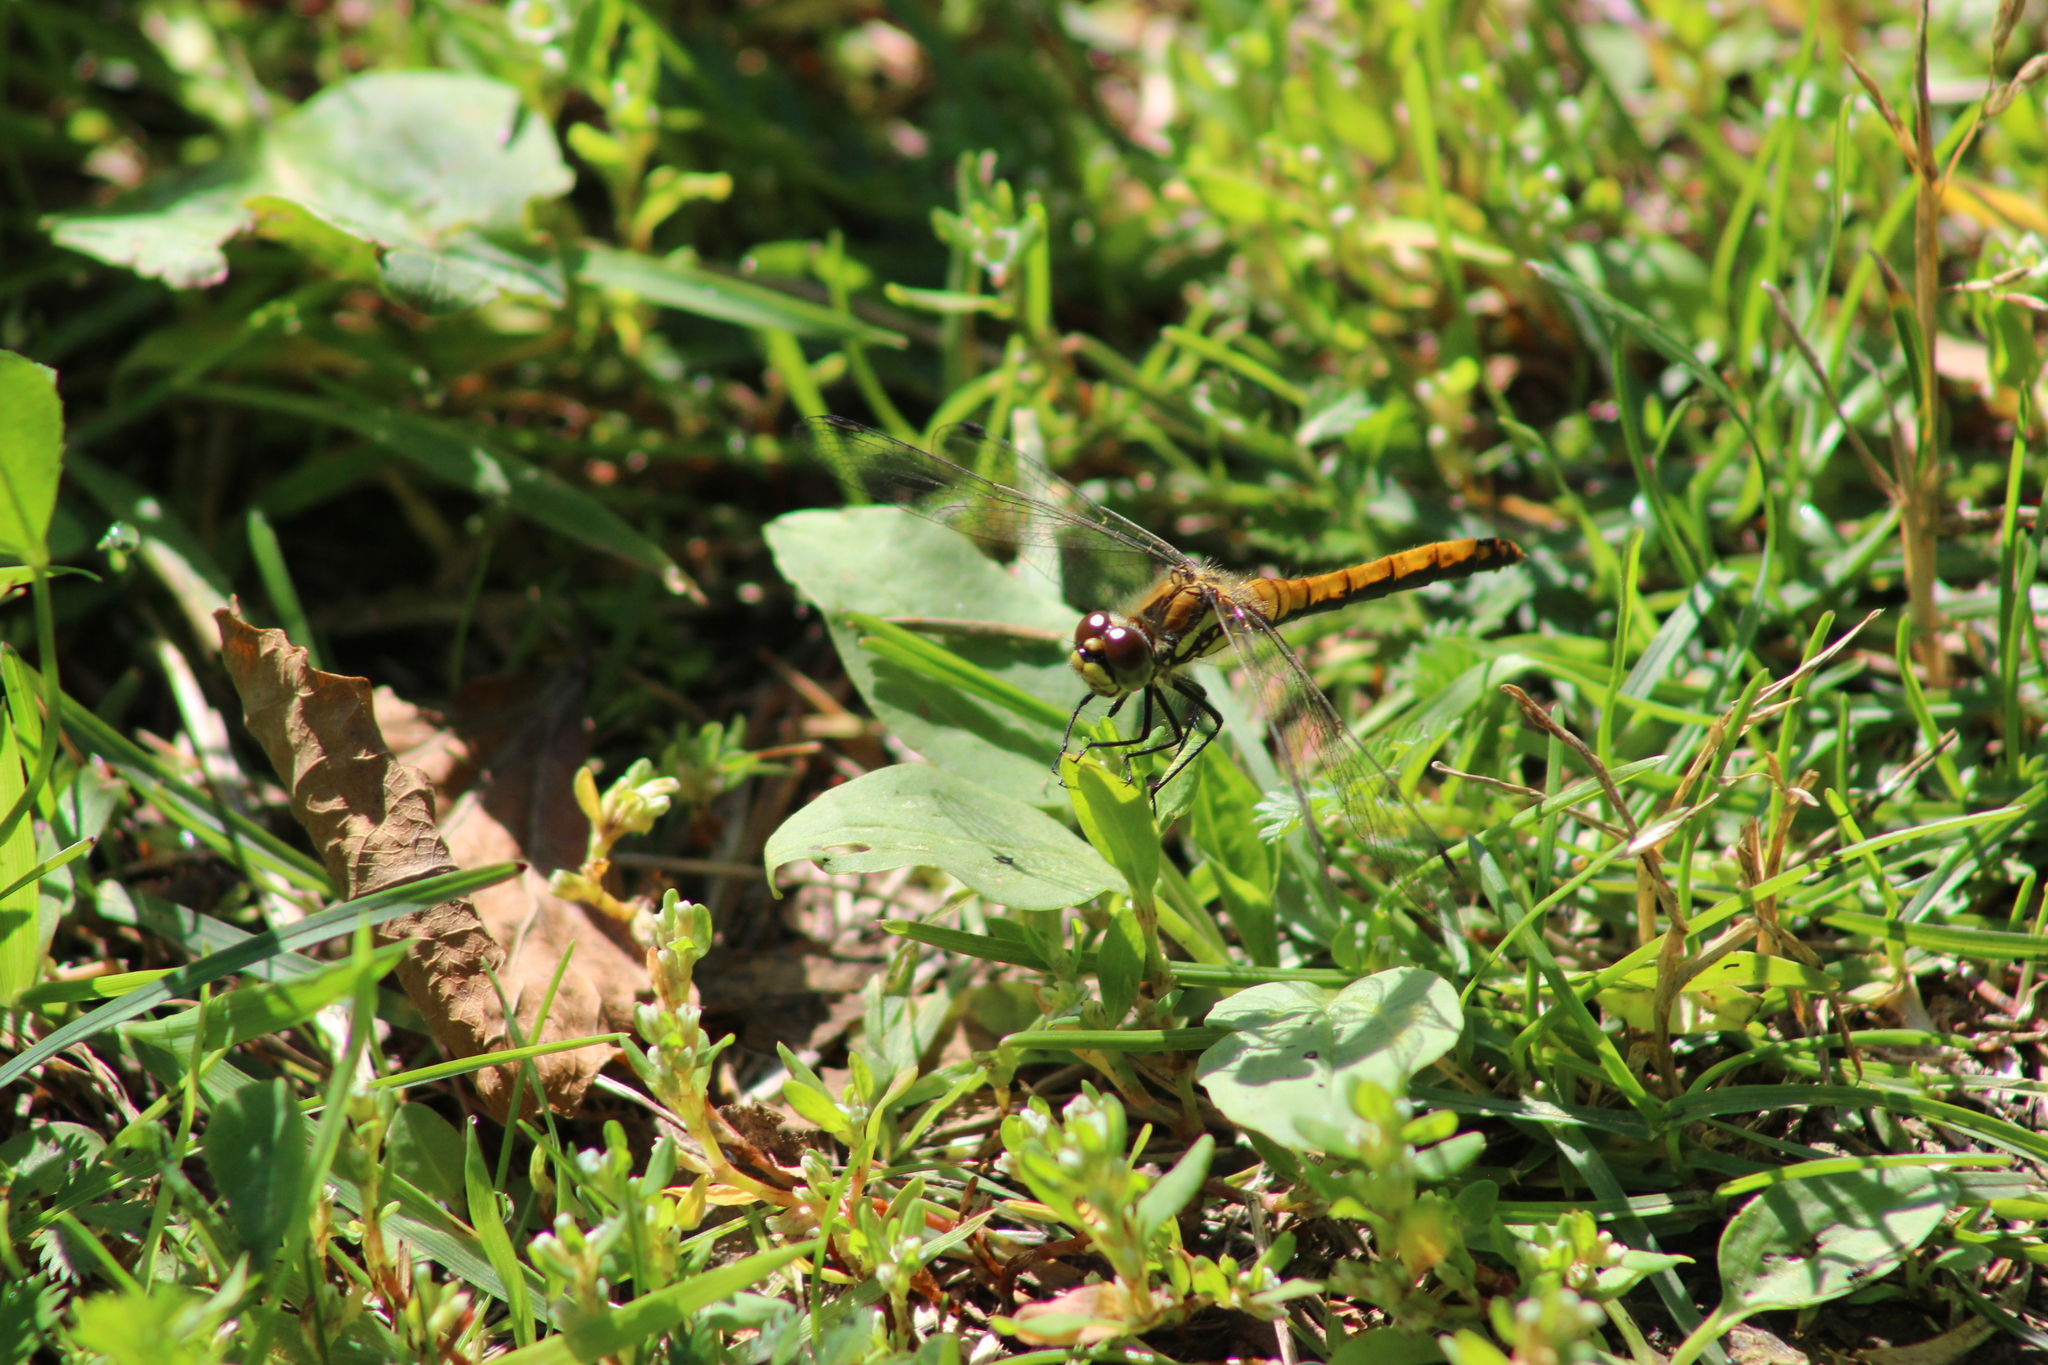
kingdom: Animalia
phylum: Arthropoda
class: Insecta
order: Odonata
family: Libellulidae
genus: Sympetrum
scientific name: Sympetrum flaveolum
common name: Yellow-winged darter
